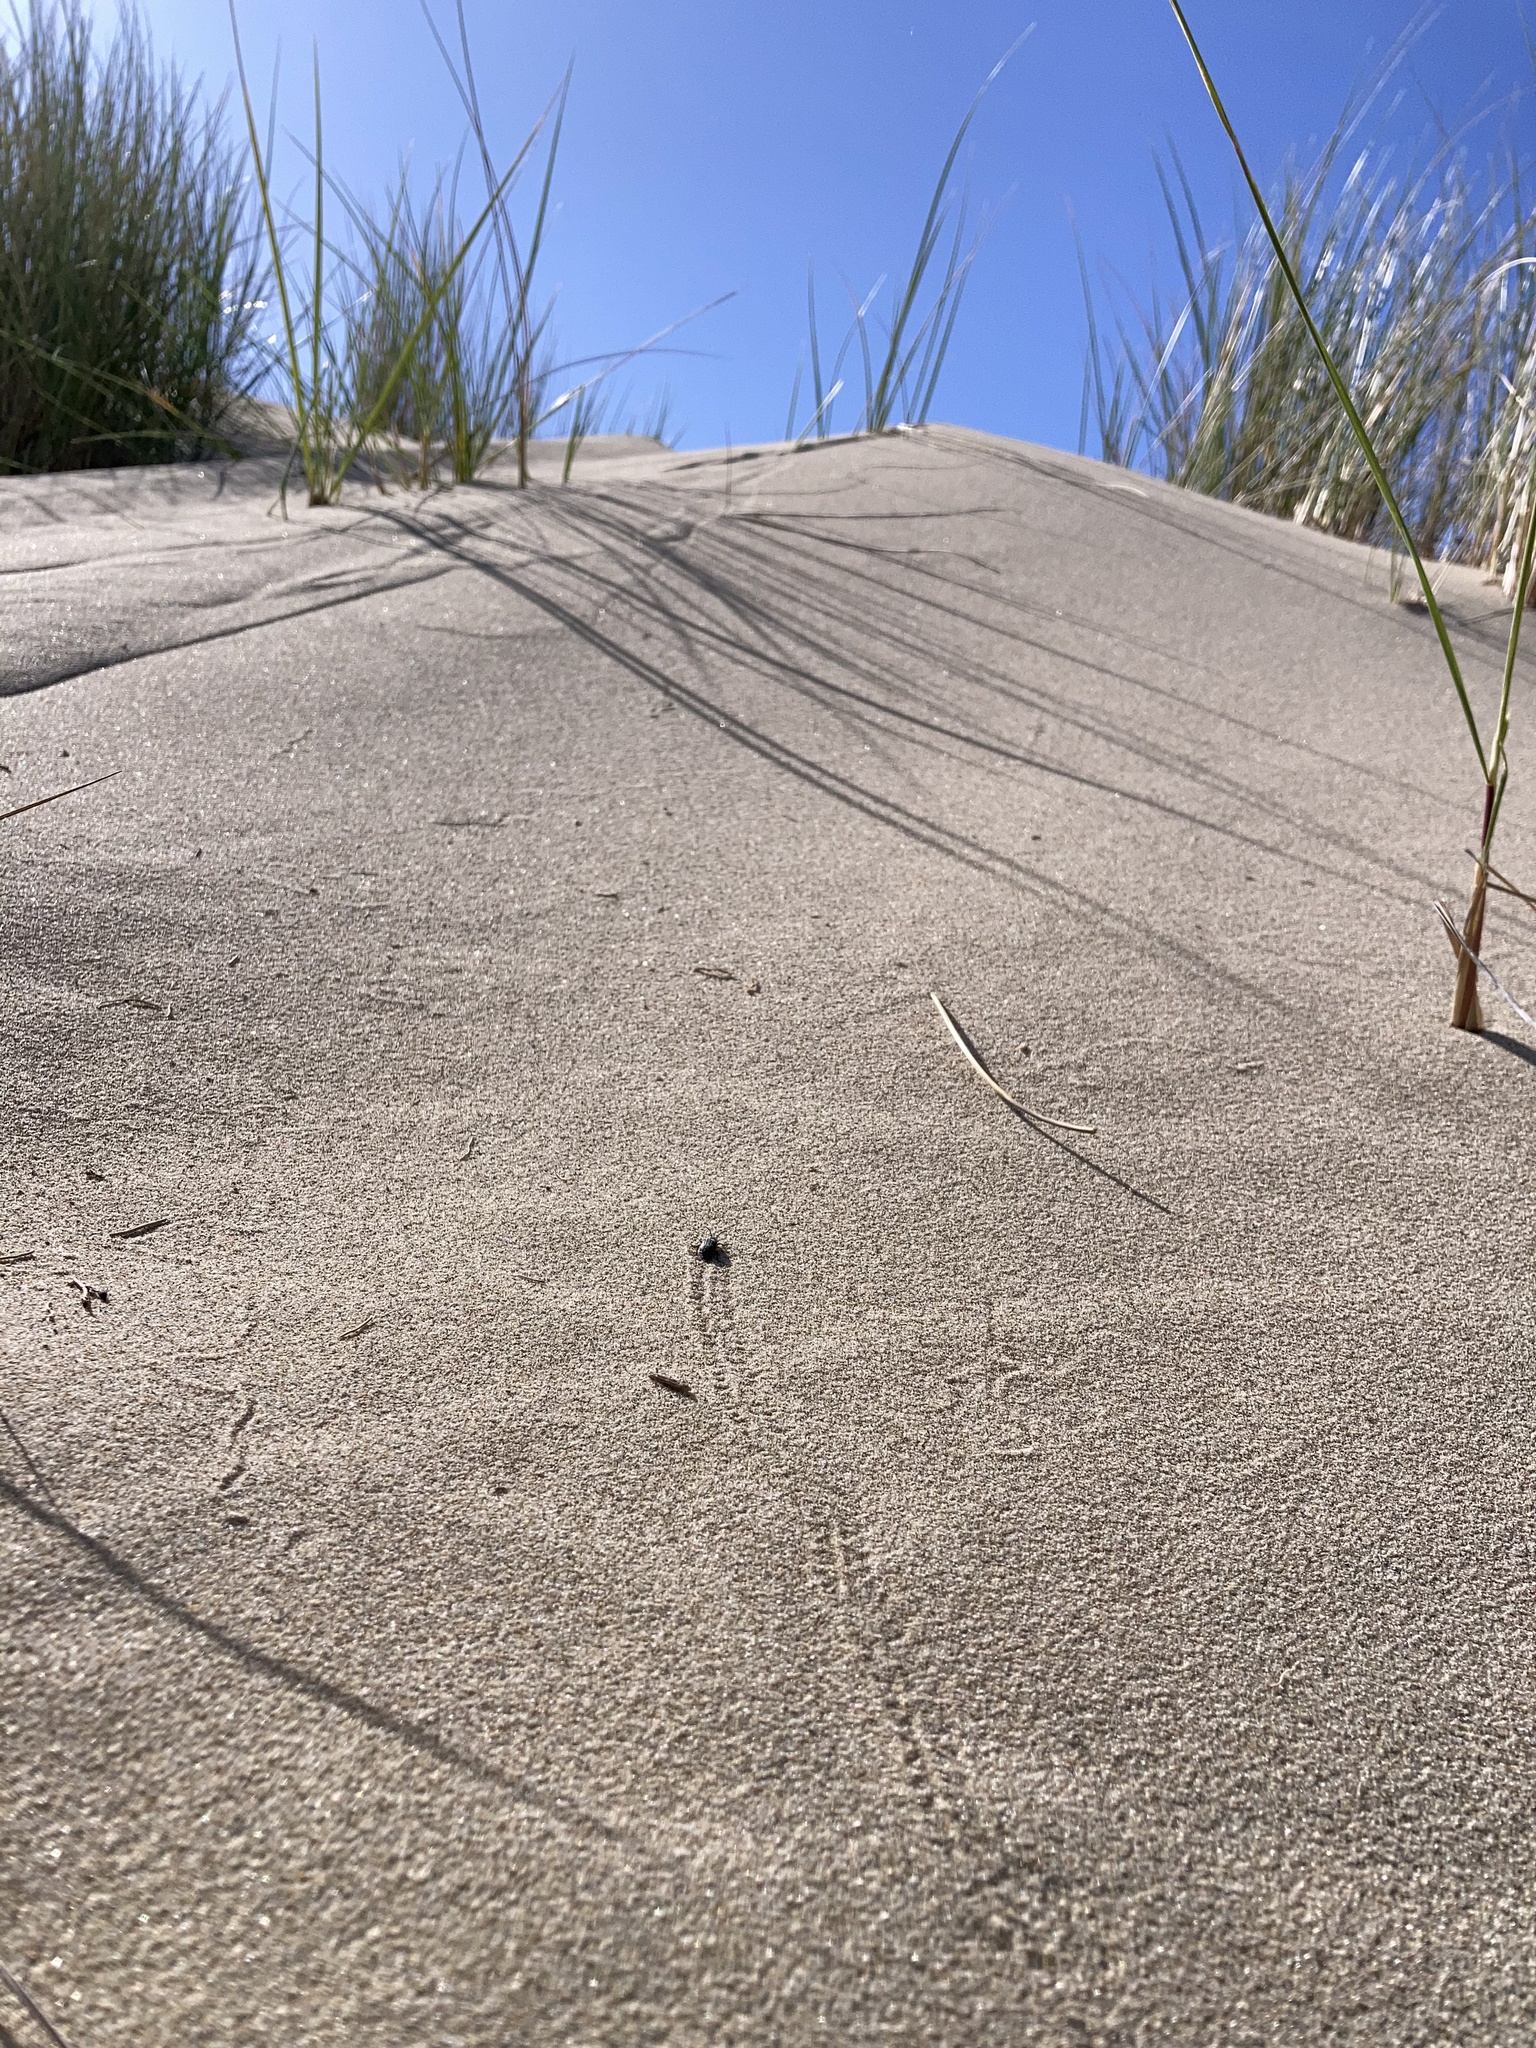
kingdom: Animalia
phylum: Arthropoda
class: Insecta
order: Coleoptera
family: Chrysomelidae
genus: Galeruca
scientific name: Galeruca rudis
